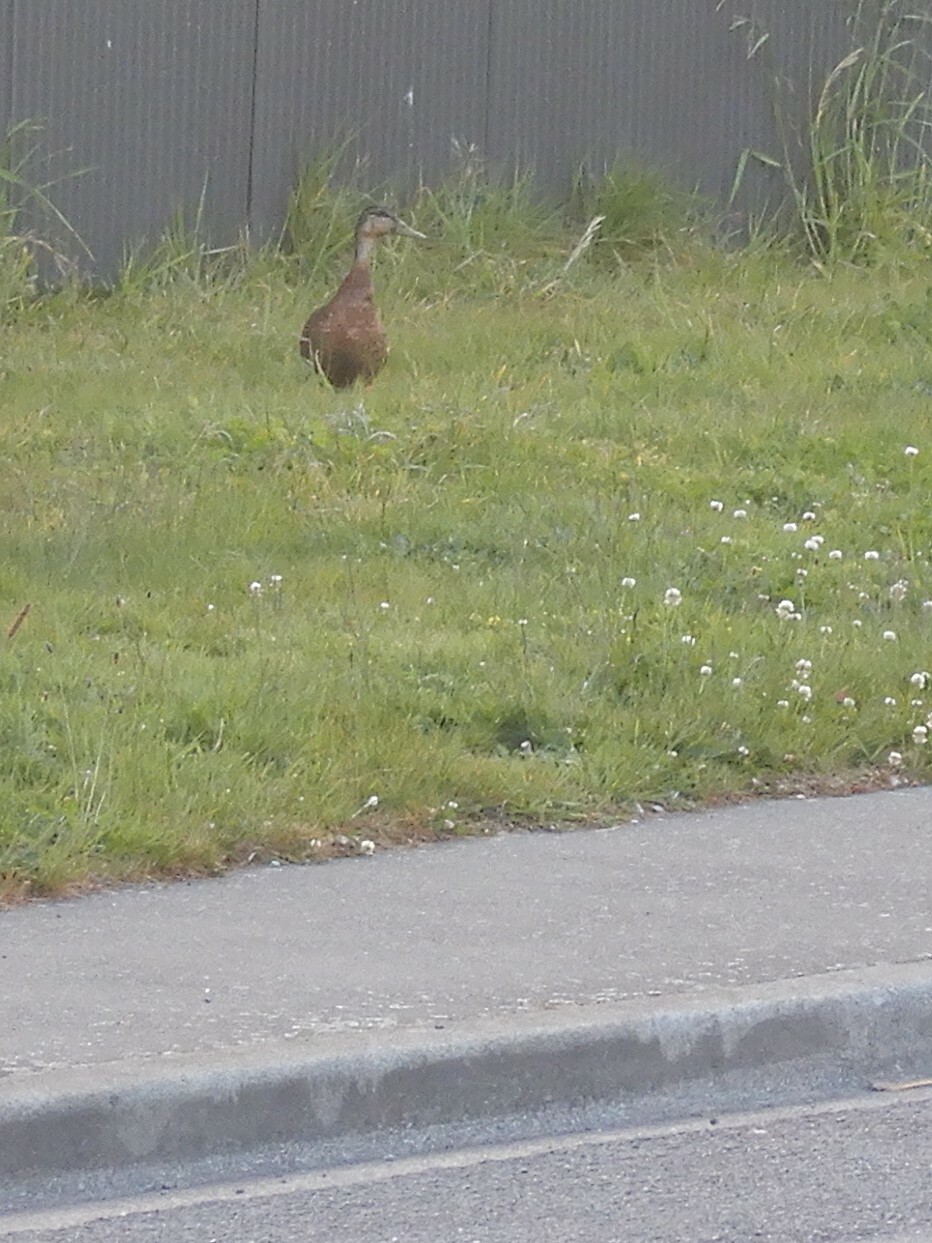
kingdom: Animalia
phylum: Chordata
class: Aves
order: Anseriformes
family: Anatidae
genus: Anas
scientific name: Anas platyrhynchos
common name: Mallard
